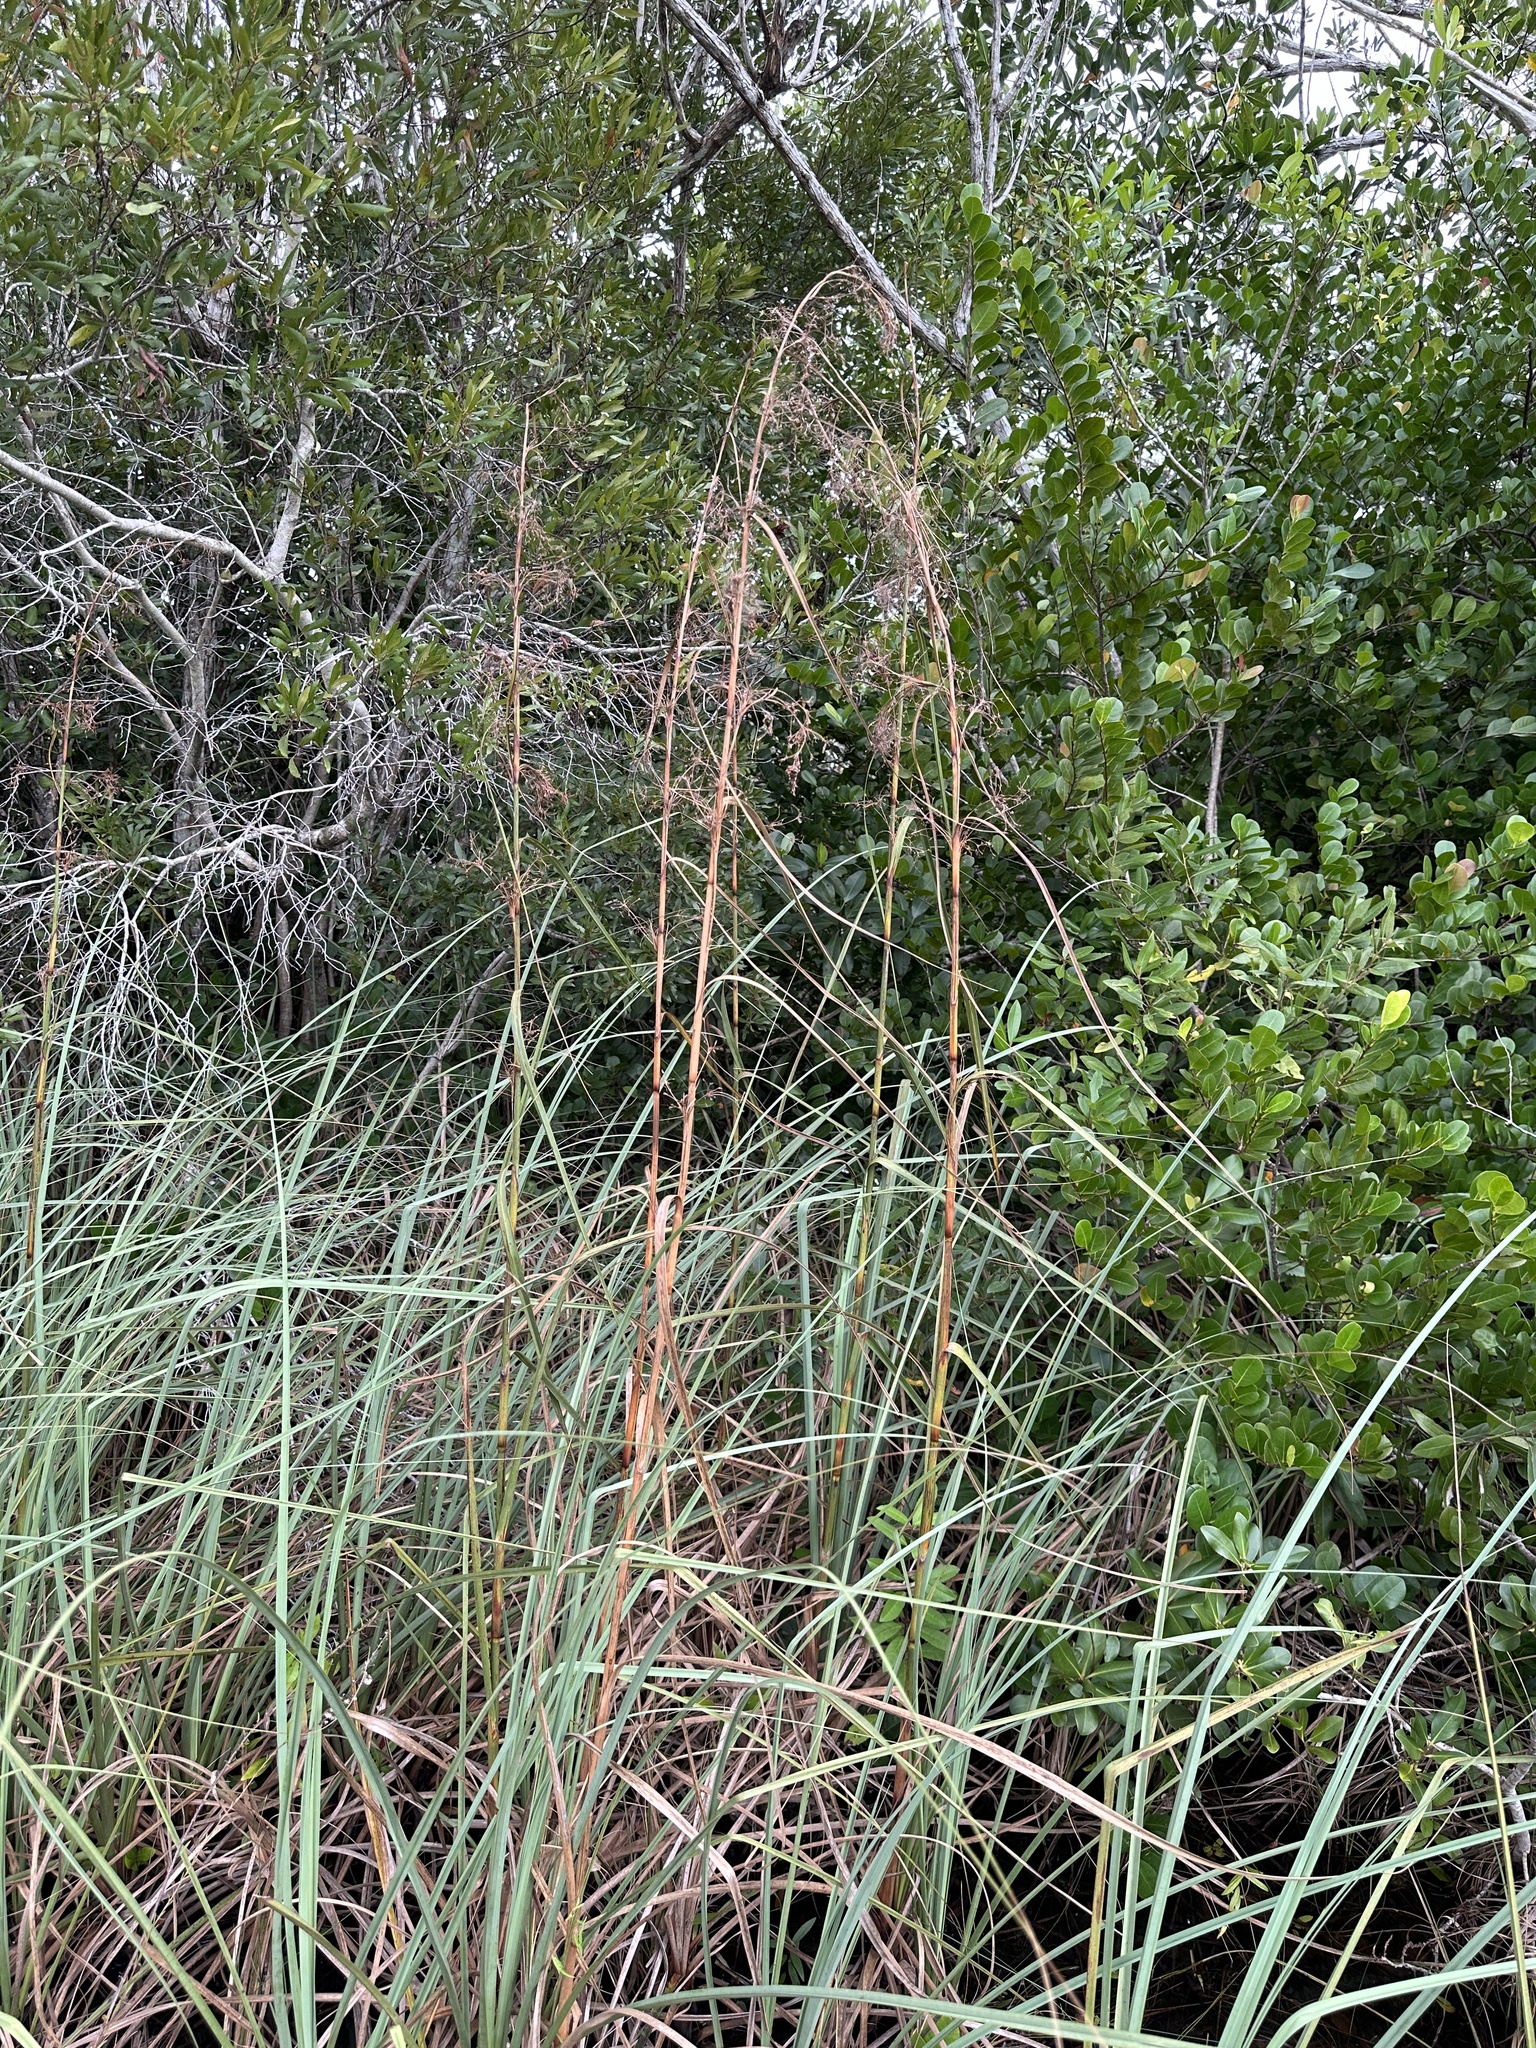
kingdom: Plantae
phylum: Tracheophyta
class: Liliopsida
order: Poales
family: Cyperaceae
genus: Cladium
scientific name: Cladium mariscus
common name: Great fen-sedge
